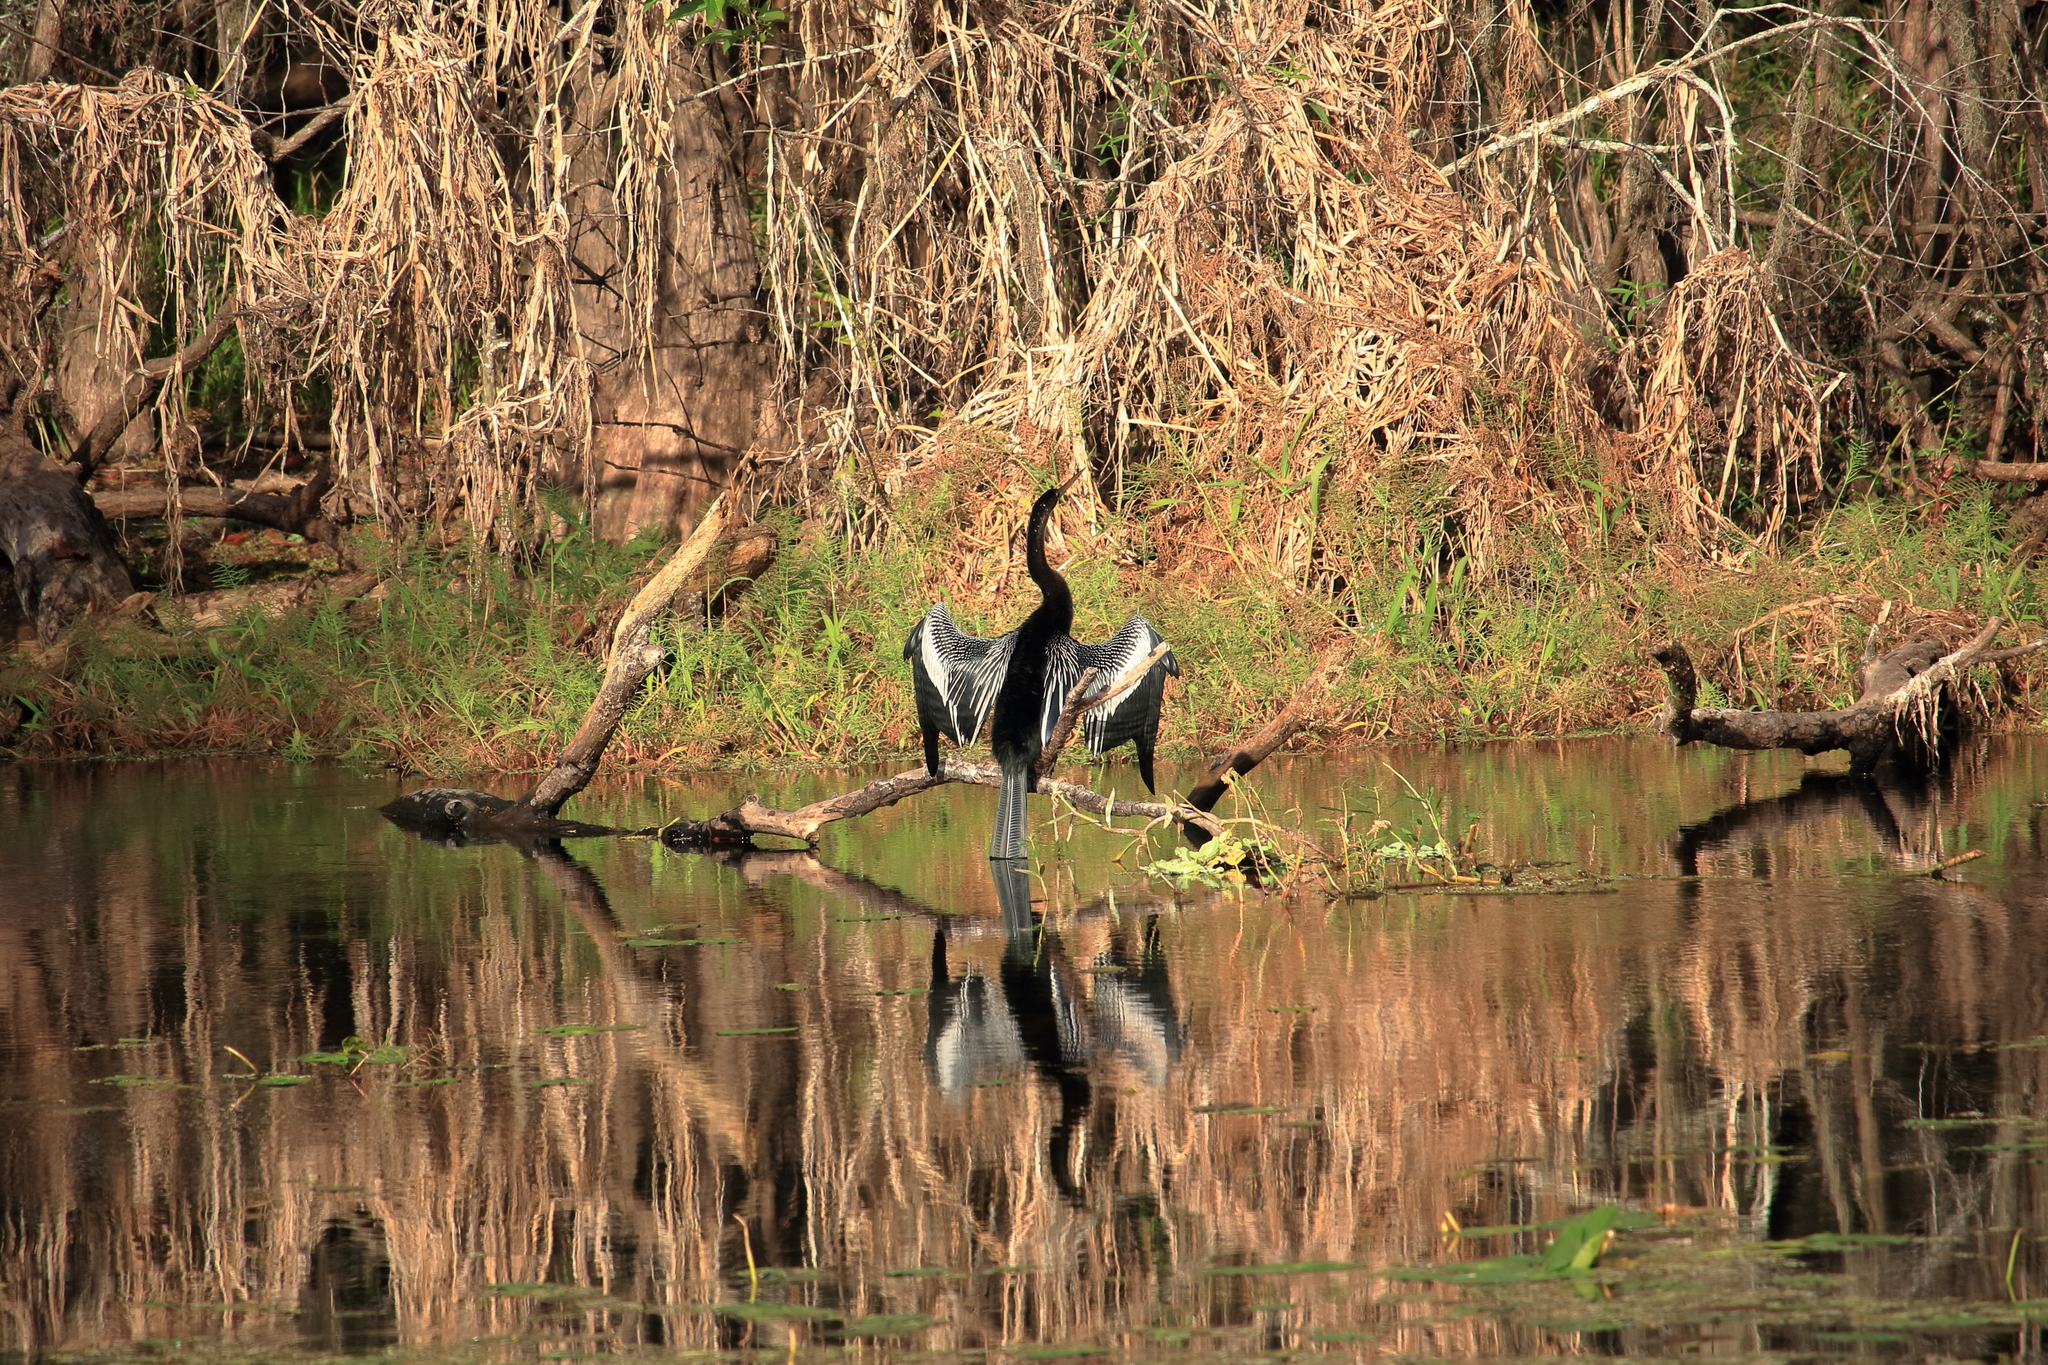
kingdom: Animalia
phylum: Chordata
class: Aves
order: Suliformes
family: Anhingidae
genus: Anhinga
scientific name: Anhinga anhinga
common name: Anhinga
